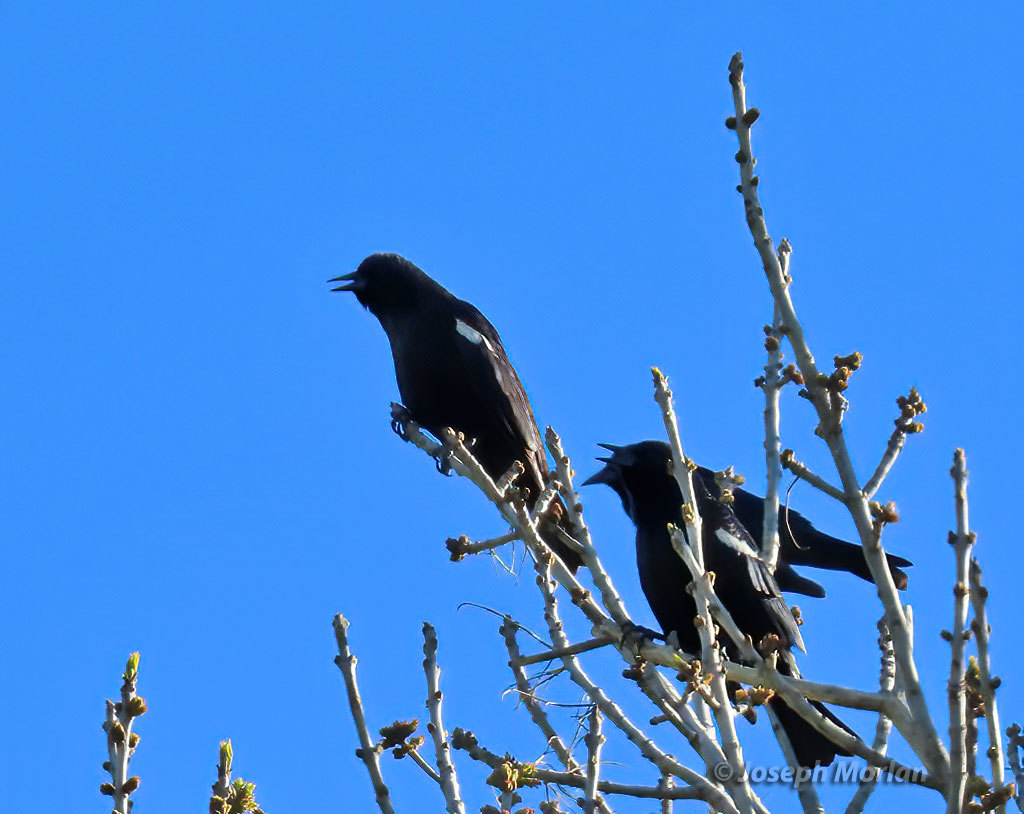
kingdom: Animalia
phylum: Chordata
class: Aves
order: Passeriformes
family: Icteridae
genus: Agelaius
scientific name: Agelaius tricolor
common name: Tricolored blackbird
